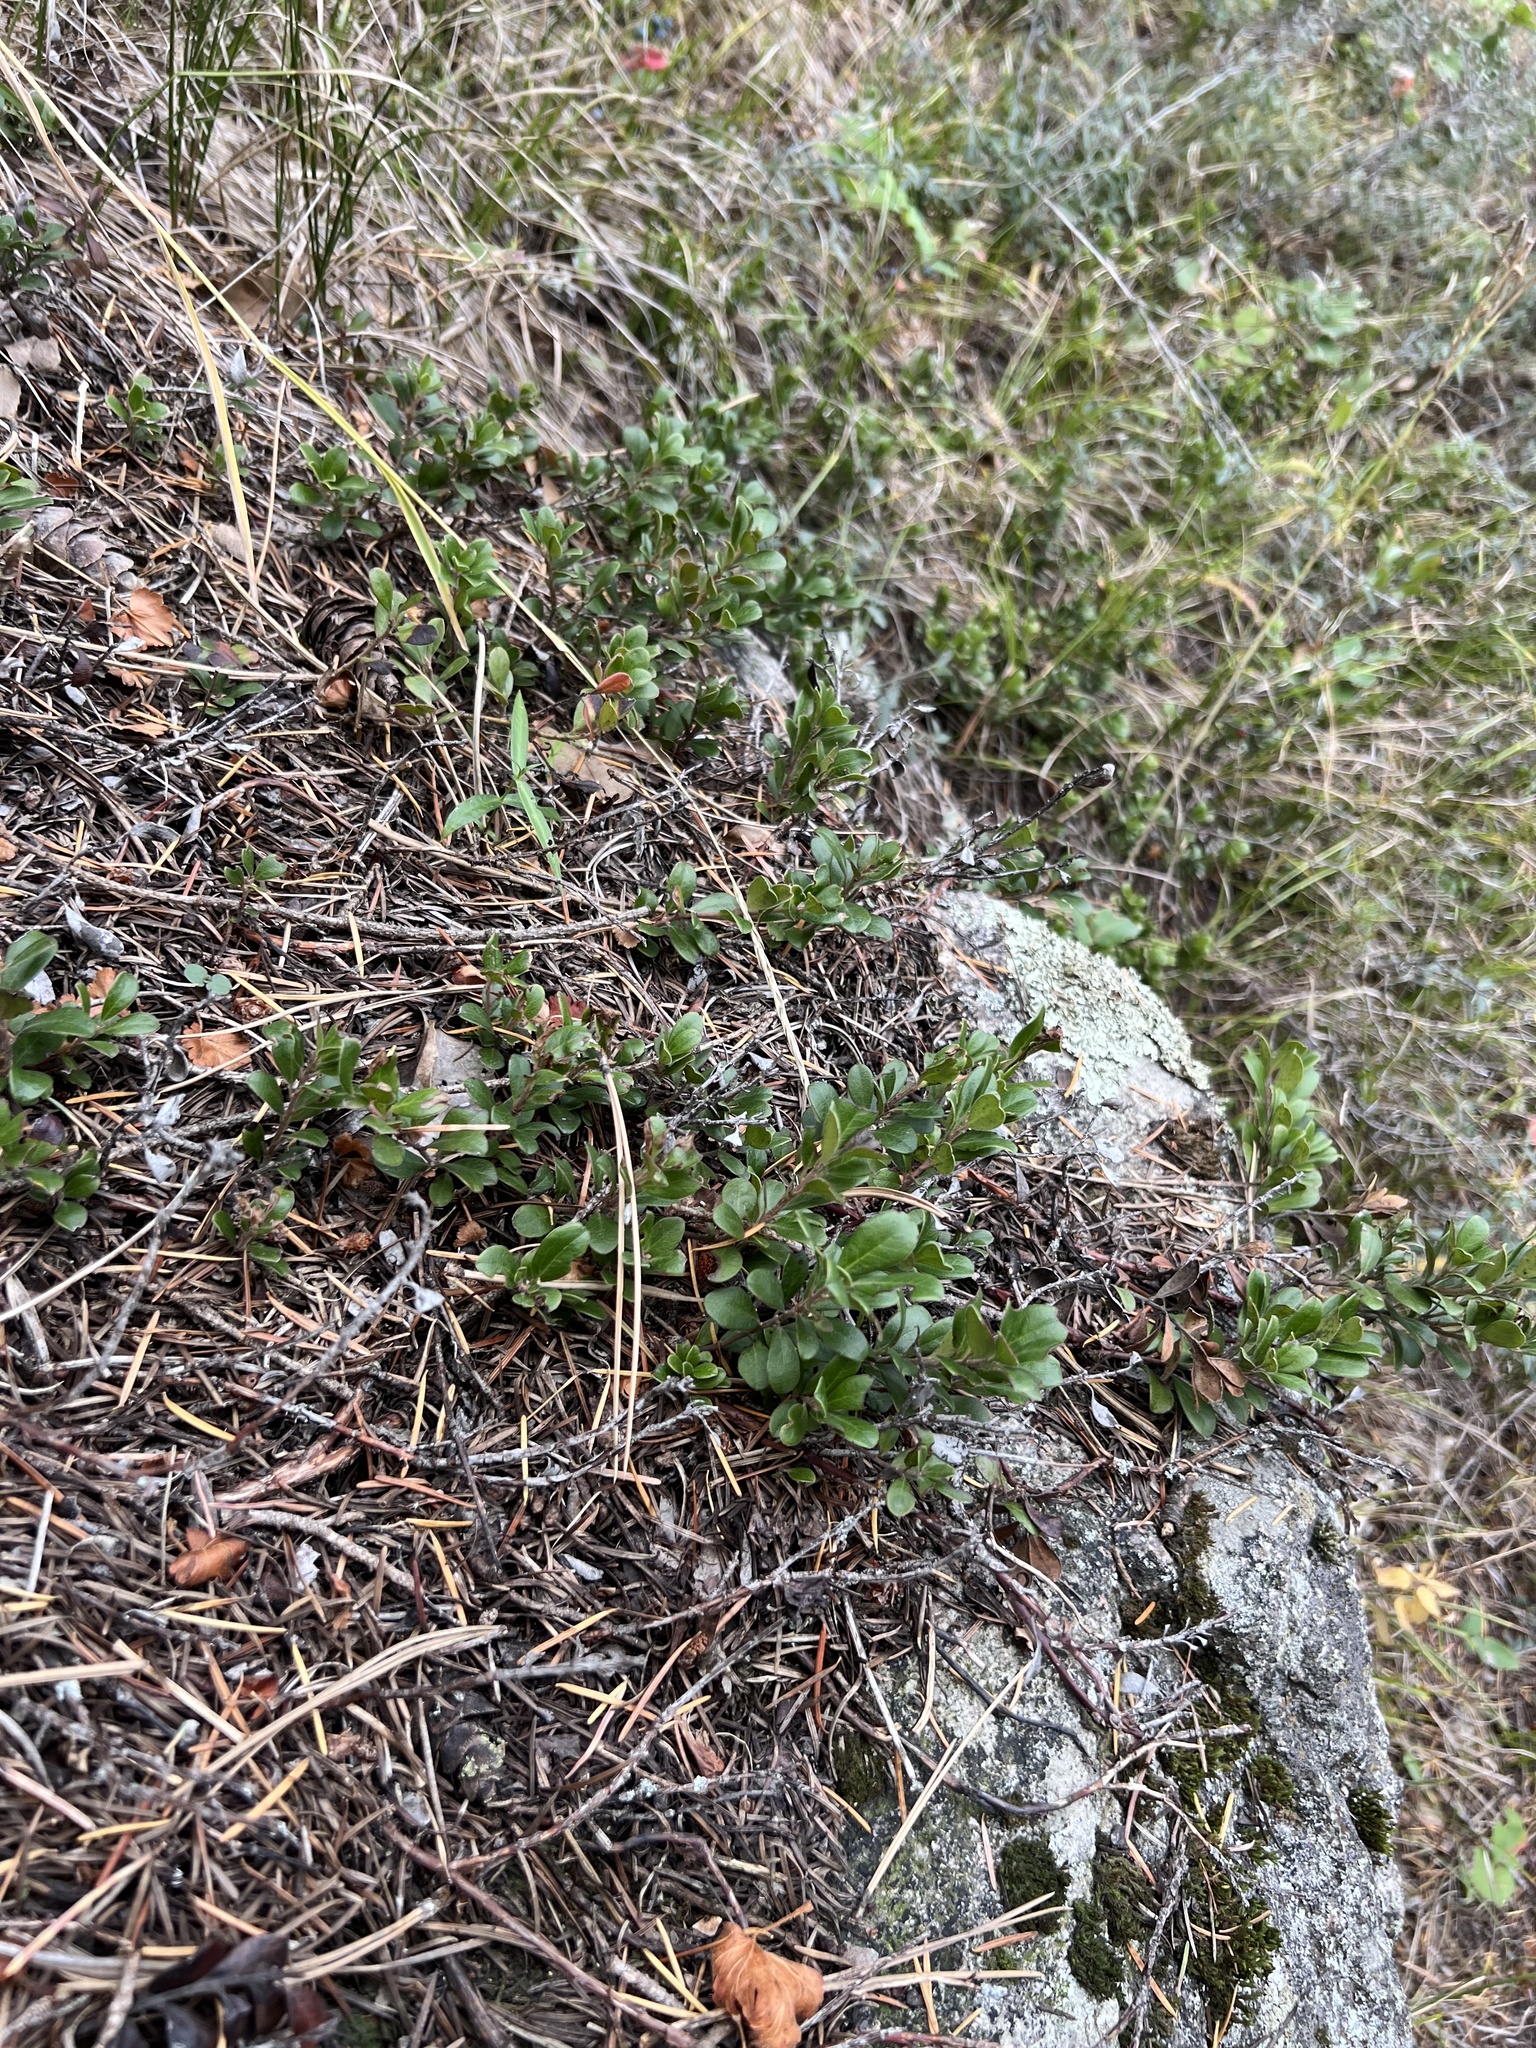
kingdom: Plantae
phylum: Tracheophyta
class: Magnoliopsida
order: Ericales
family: Ericaceae
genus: Arctostaphylos
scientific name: Arctostaphylos uva-ursi
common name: Bearberry
